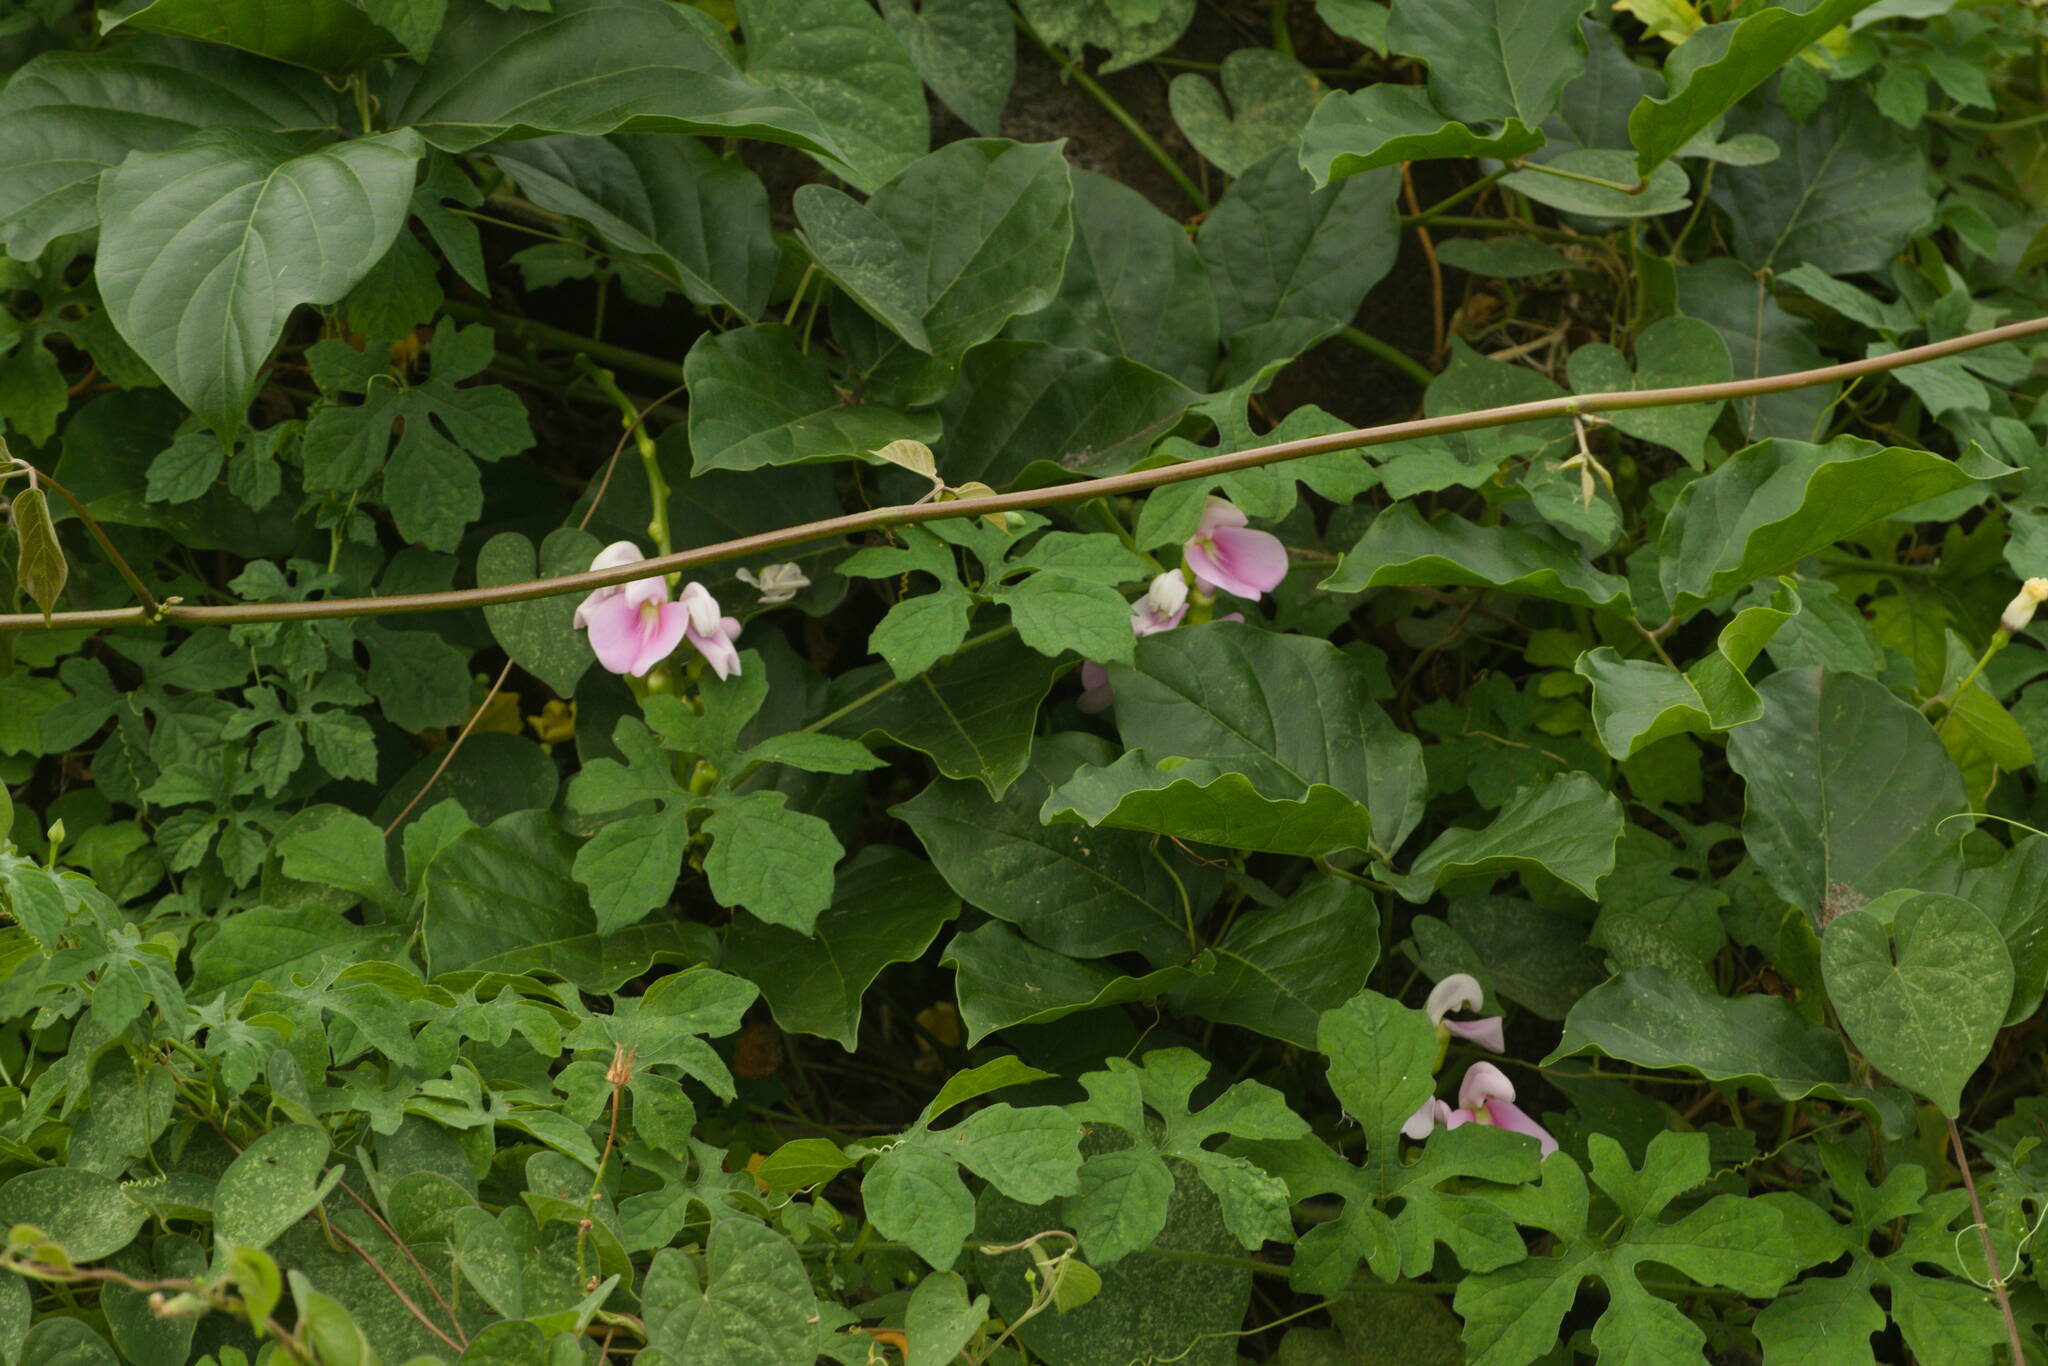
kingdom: Plantae
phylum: Tracheophyta
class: Magnoliopsida
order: Fabales
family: Fabaceae
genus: Canavalia
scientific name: Canavalia cathartica
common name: Maunaloa
